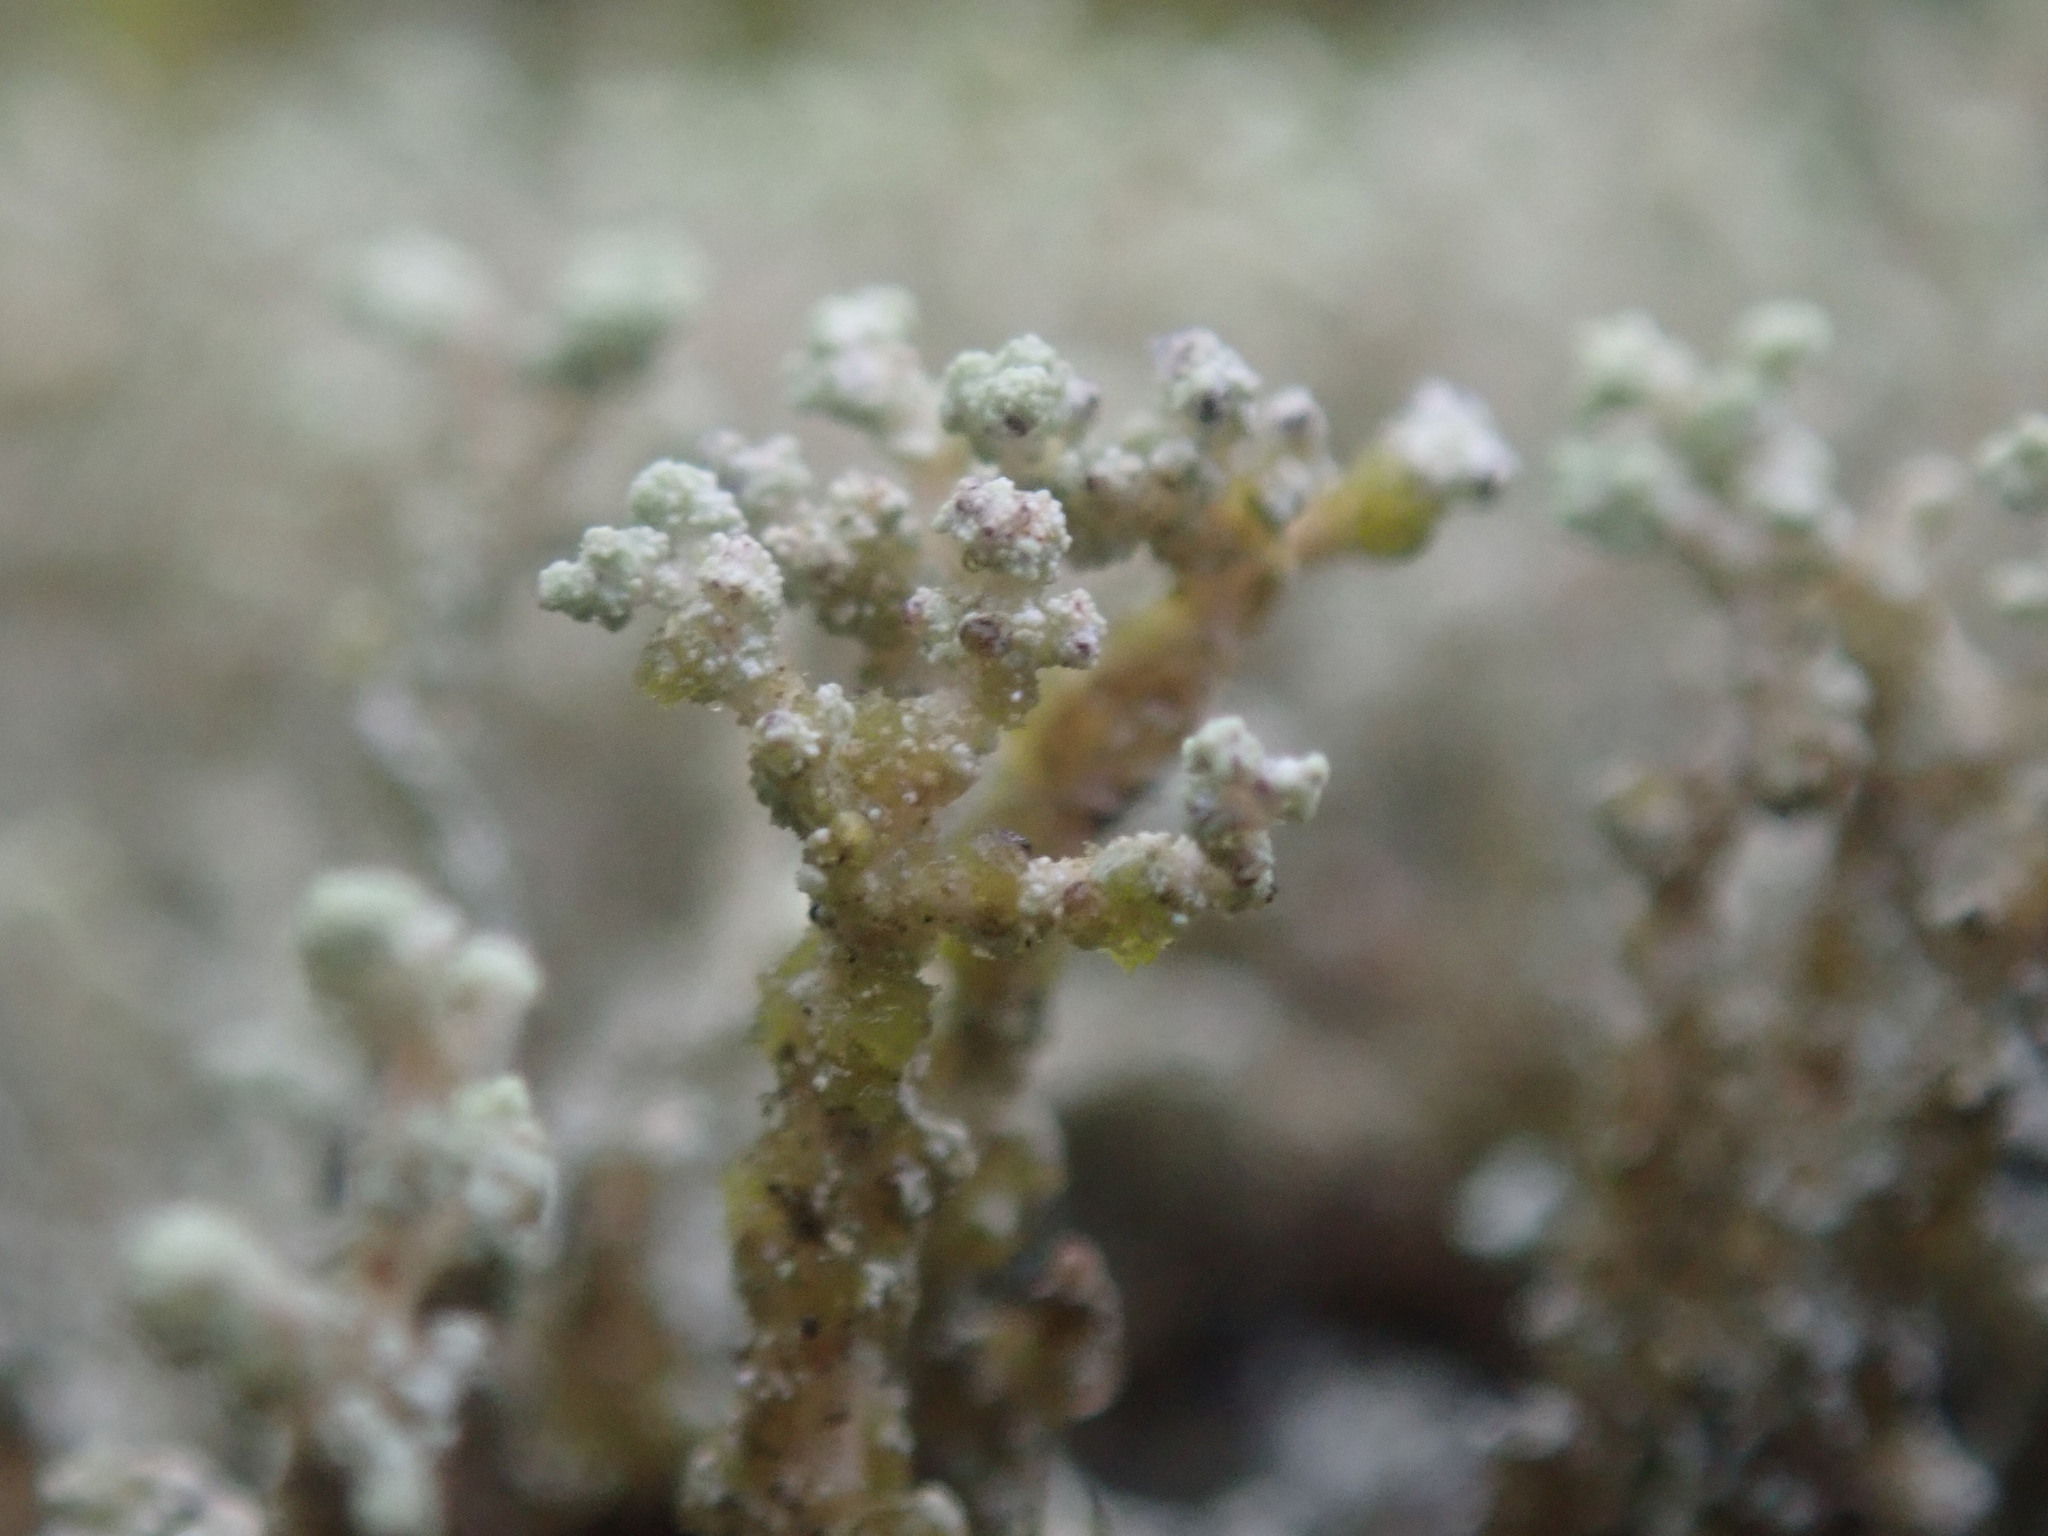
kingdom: Fungi
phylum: Ascomycota
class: Lecanoromycetes
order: Lecanorales
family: Stereocaulaceae
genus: Stereocaulon
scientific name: Stereocaulon vesuvianum
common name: Variegated foam lichen
